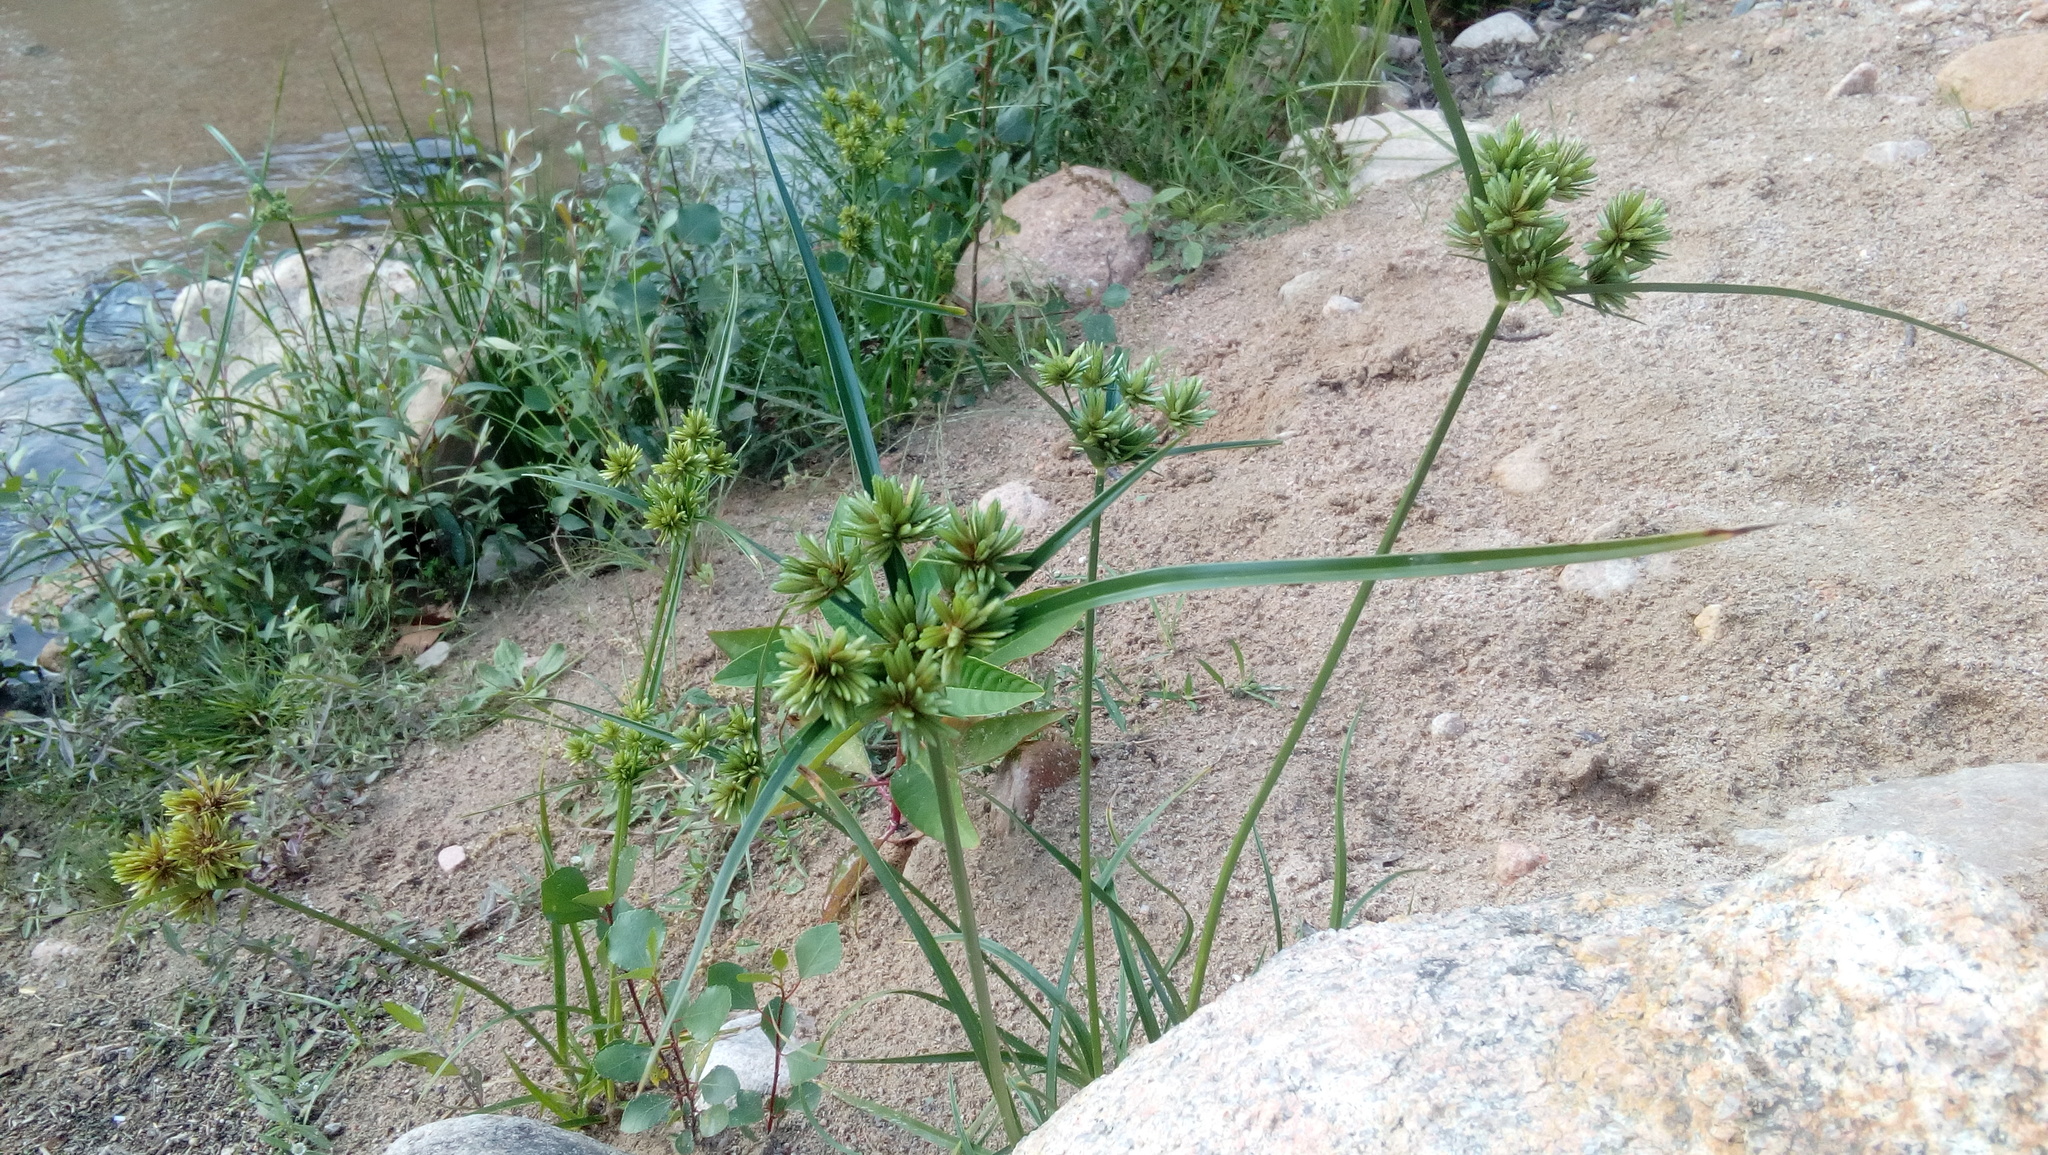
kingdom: Plantae
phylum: Tracheophyta
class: Liliopsida
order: Poales
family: Cyperaceae
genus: Cyperus
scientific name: Cyperus eragrostis
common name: Tall flatsedge
